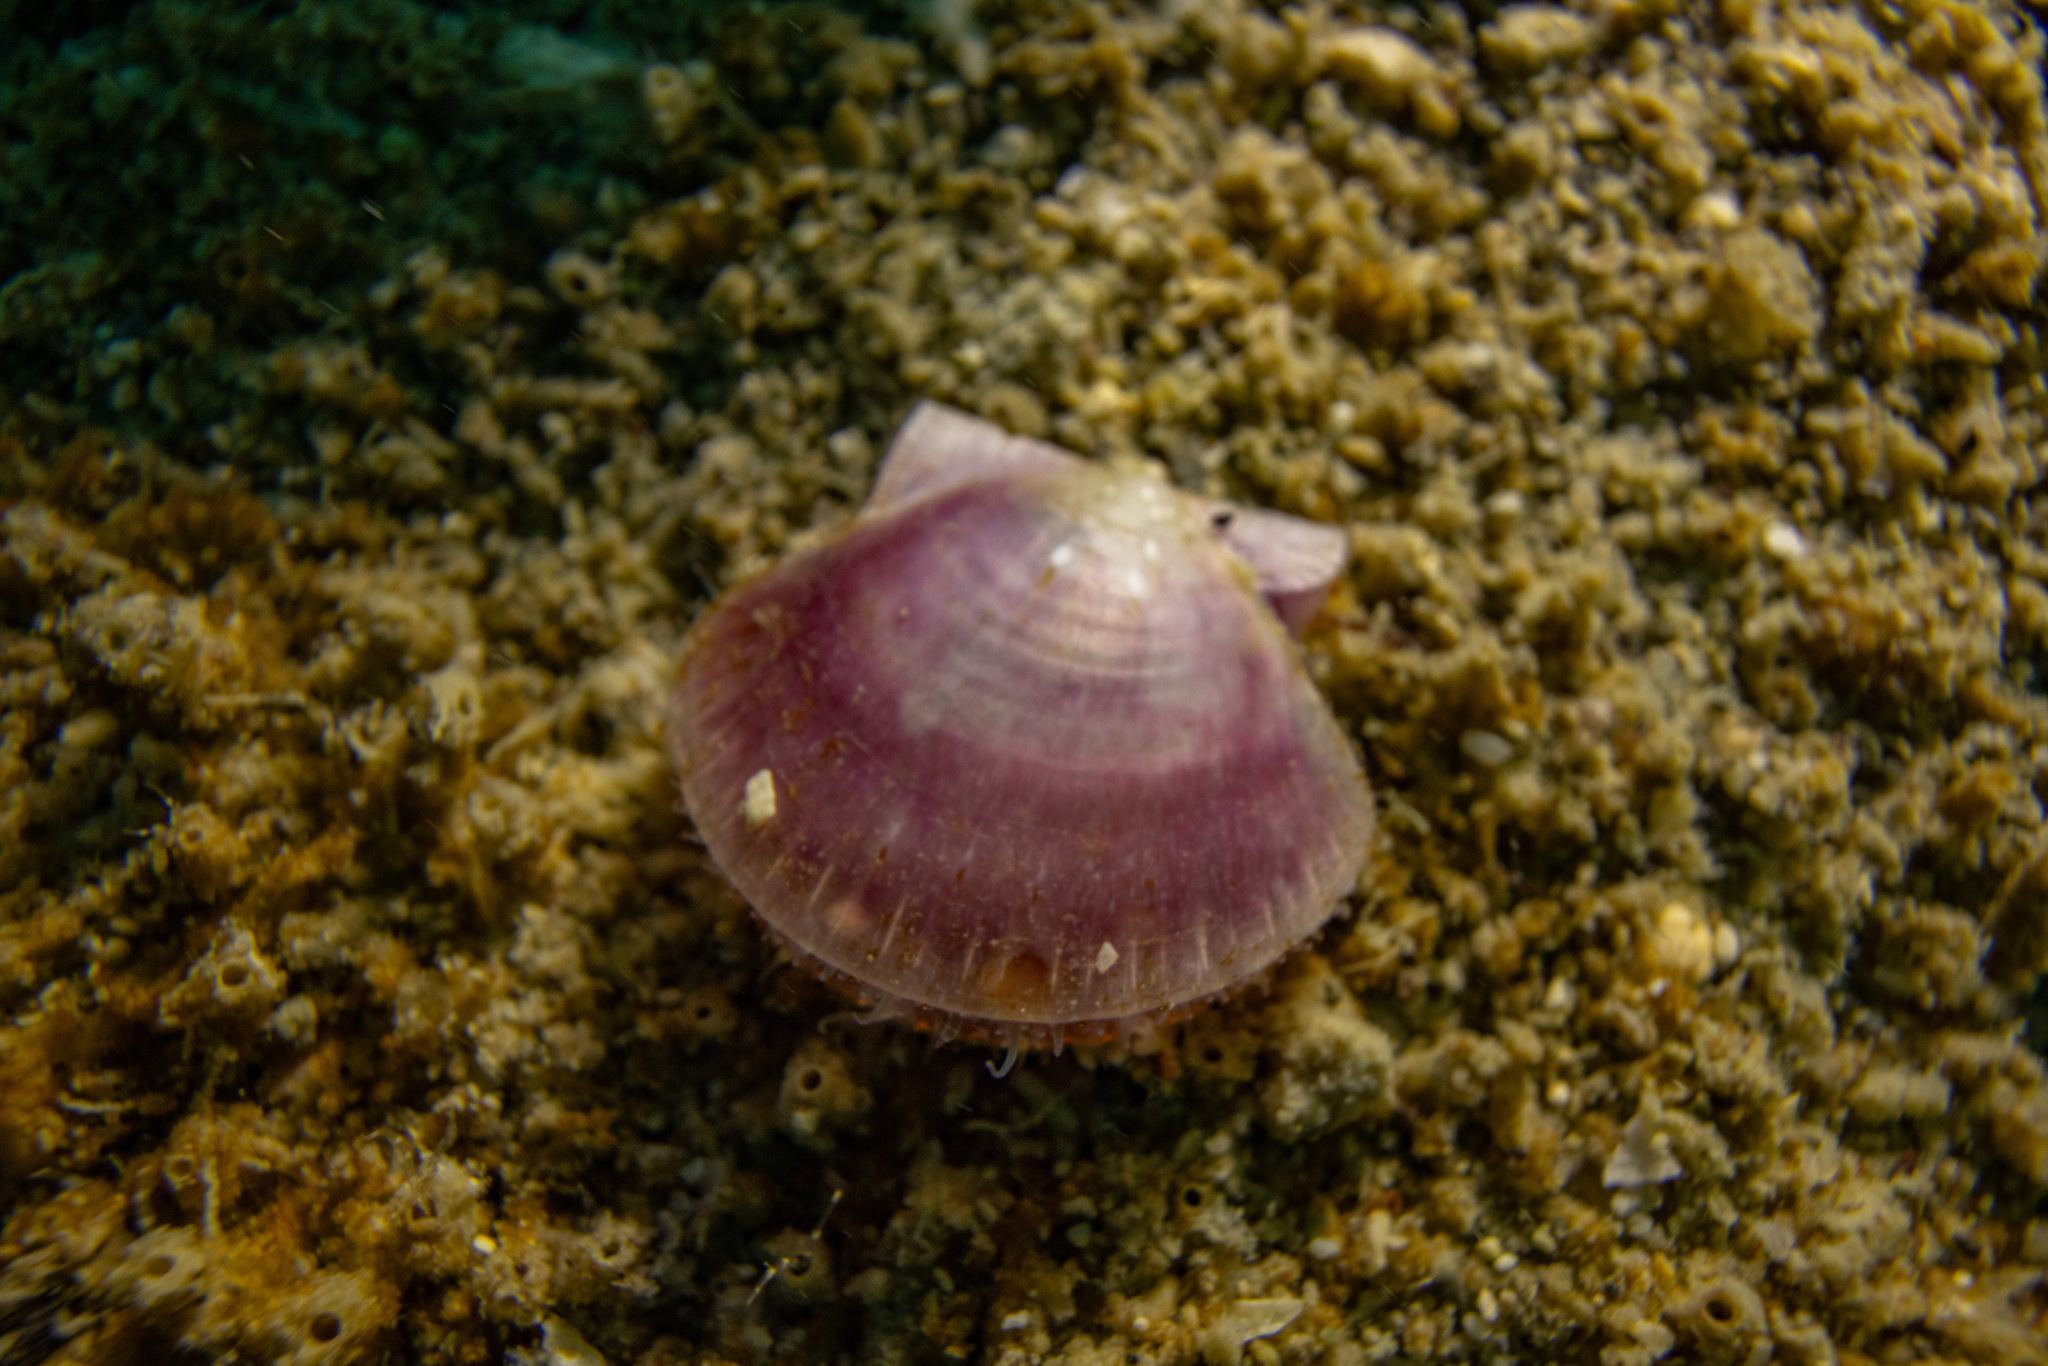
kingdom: Animalia
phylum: Mollusca
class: Bivalvia
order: Pectinida
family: Pectinidae
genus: Pecten
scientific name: Pecten novaezelandiae
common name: New zealand scallop
